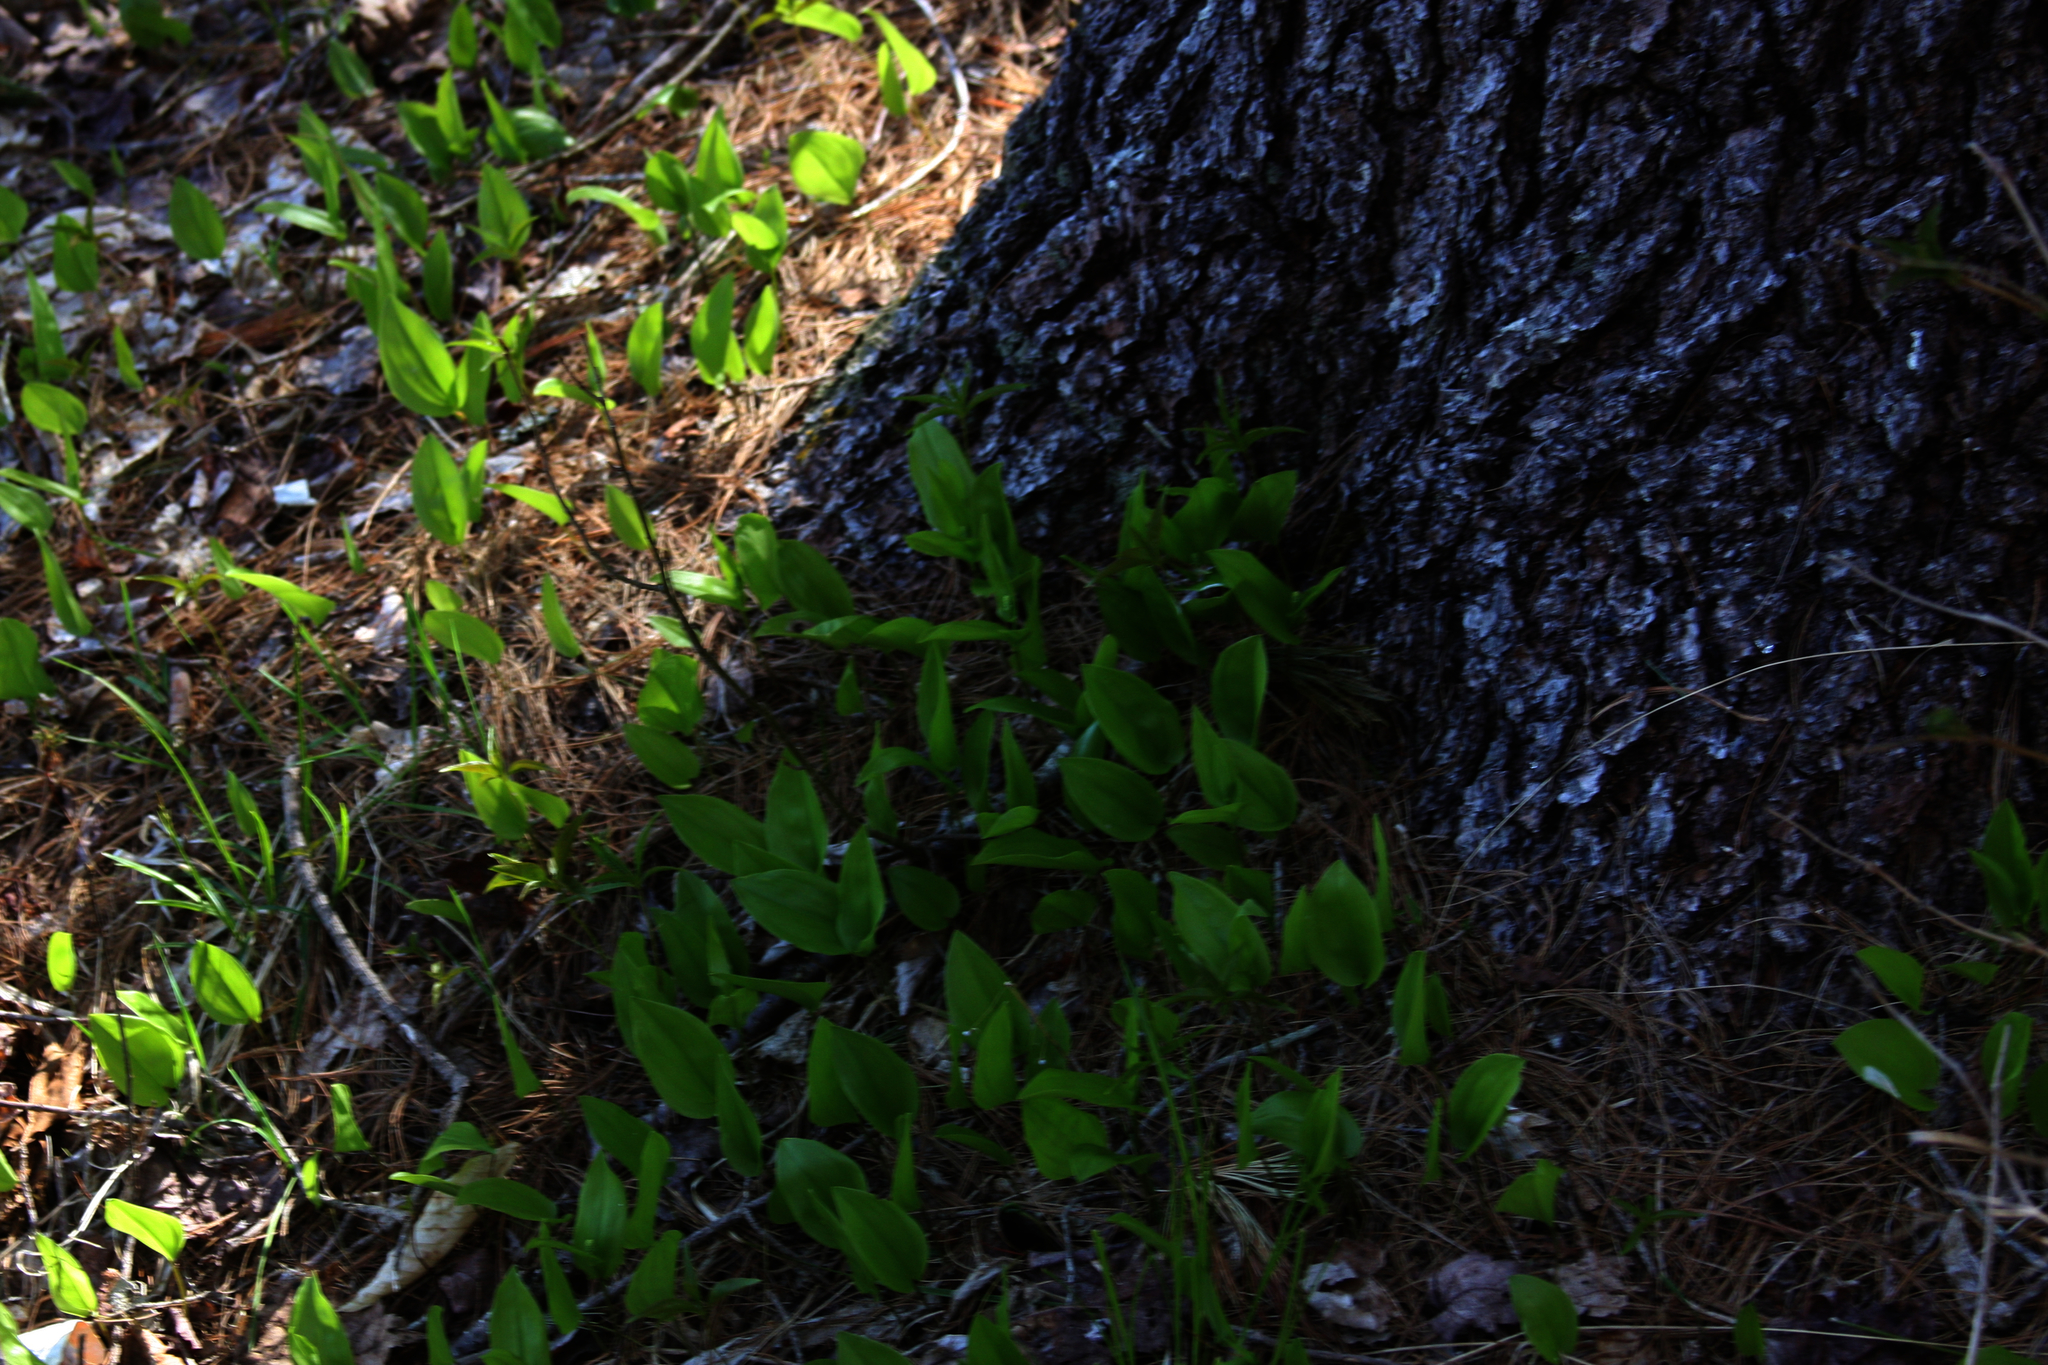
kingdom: Plantae
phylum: Tracheophyta
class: Liliopsida
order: Asparagales
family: Asparagaceae
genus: Maianthemum
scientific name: Maianthemum canadense
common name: False lily-of-the-valley
